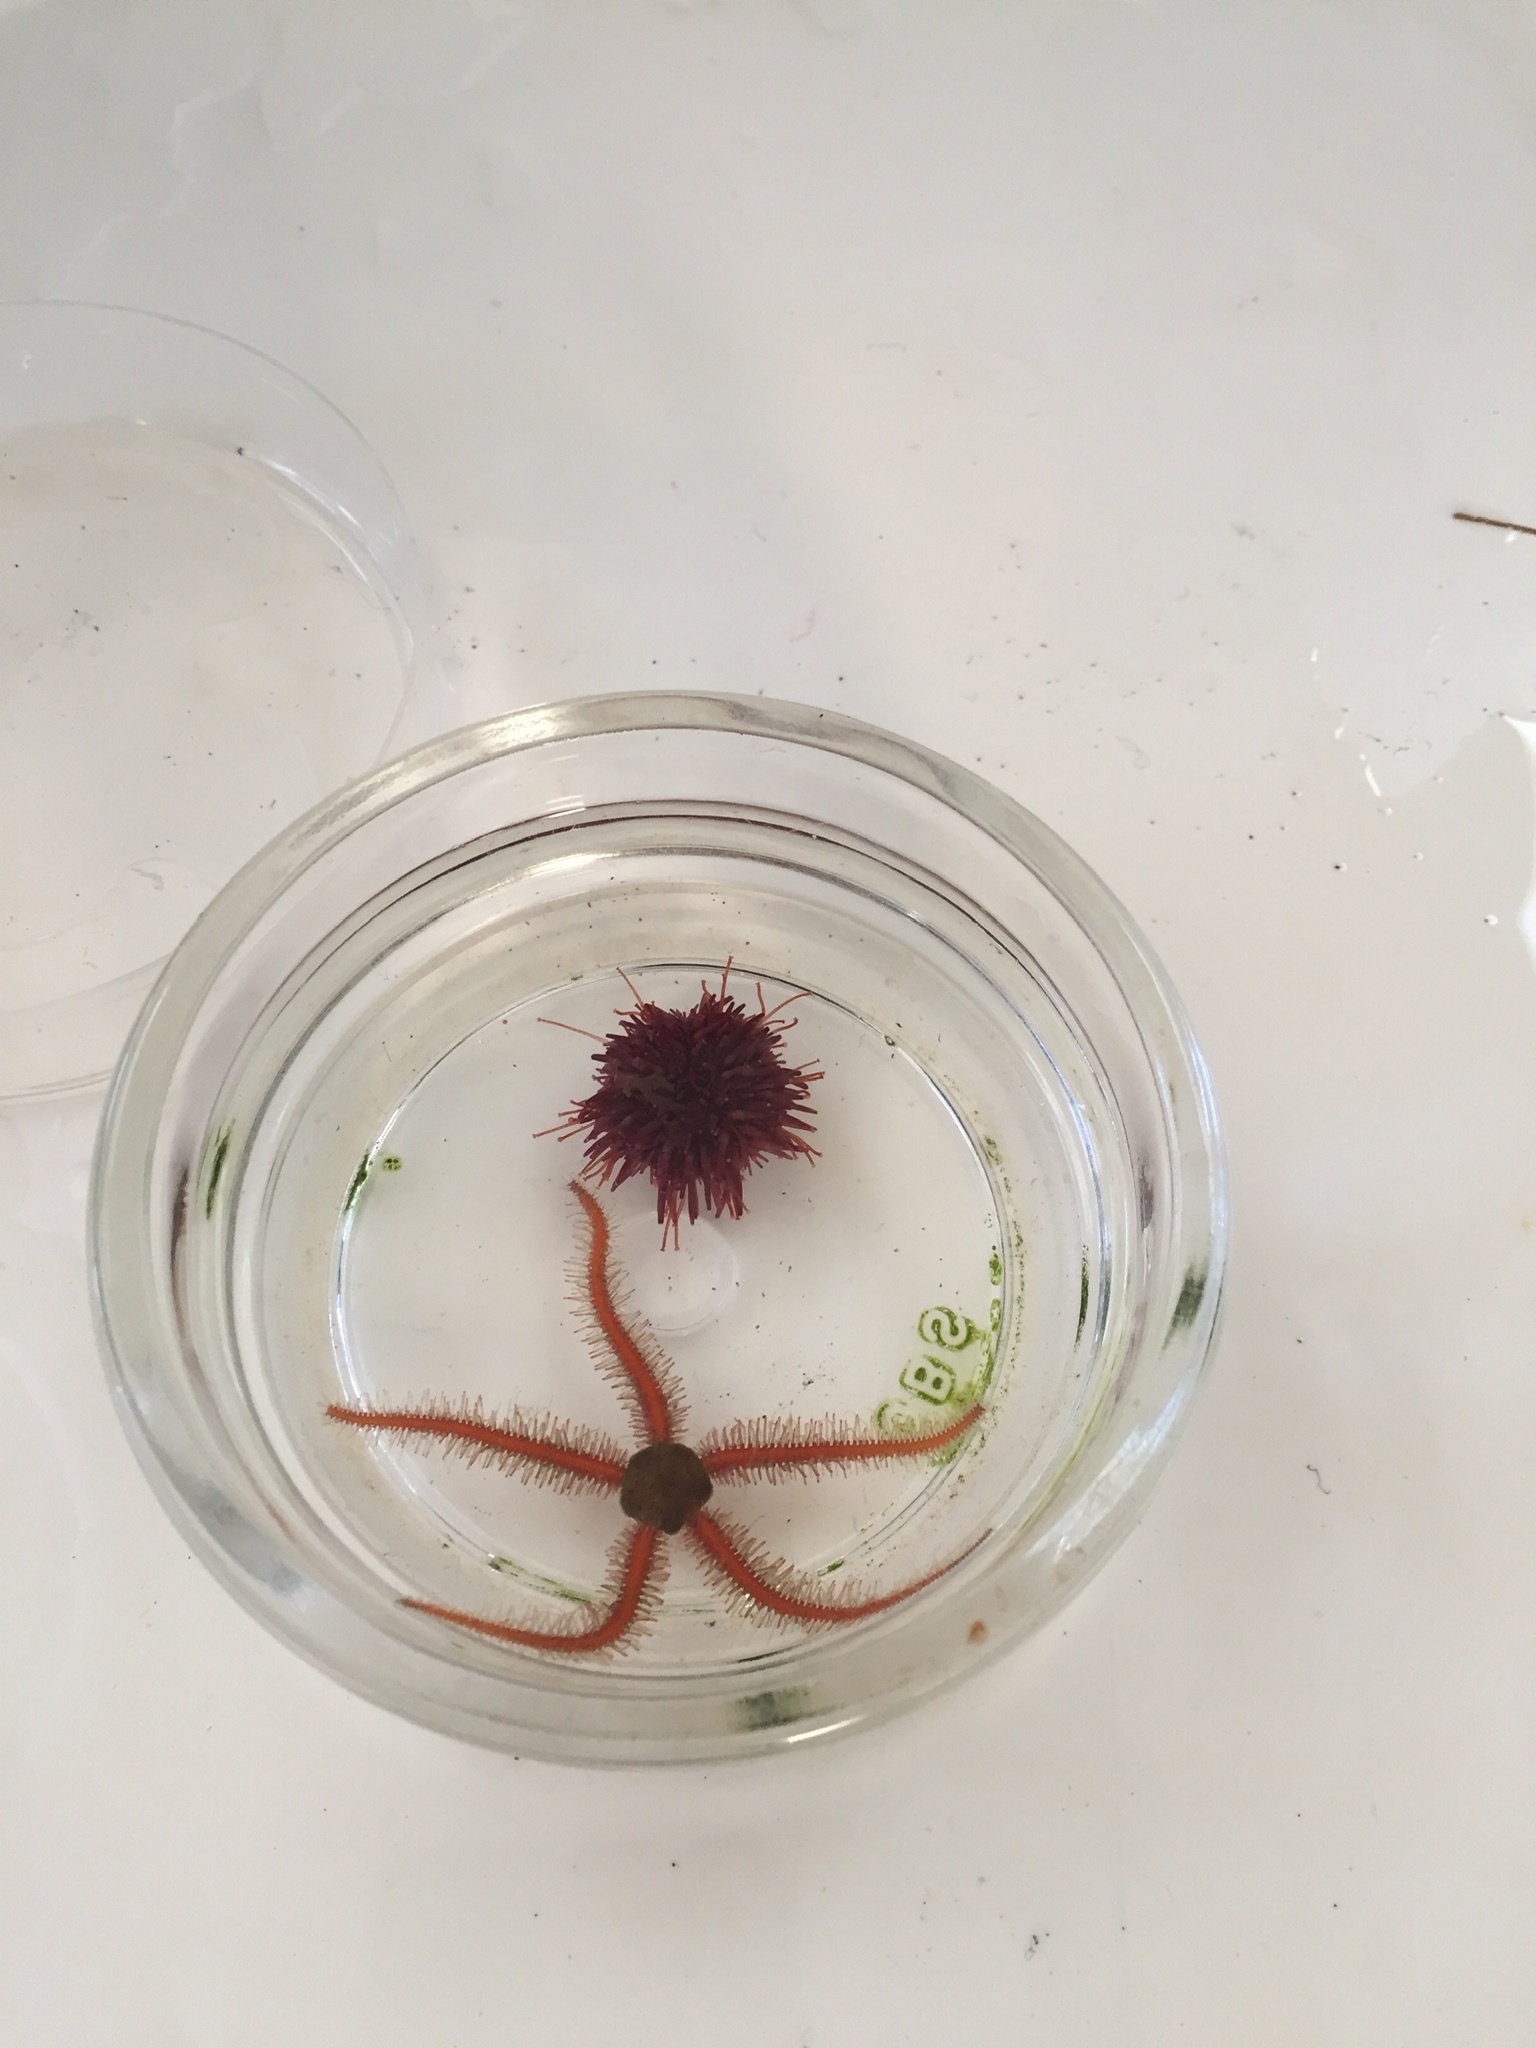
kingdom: Animalia
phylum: Echinodermata
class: Ophiuroidea
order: Amphilepidida
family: Ophiotrichidae
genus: Ophiothrix
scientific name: Ophiothrix spiculata
